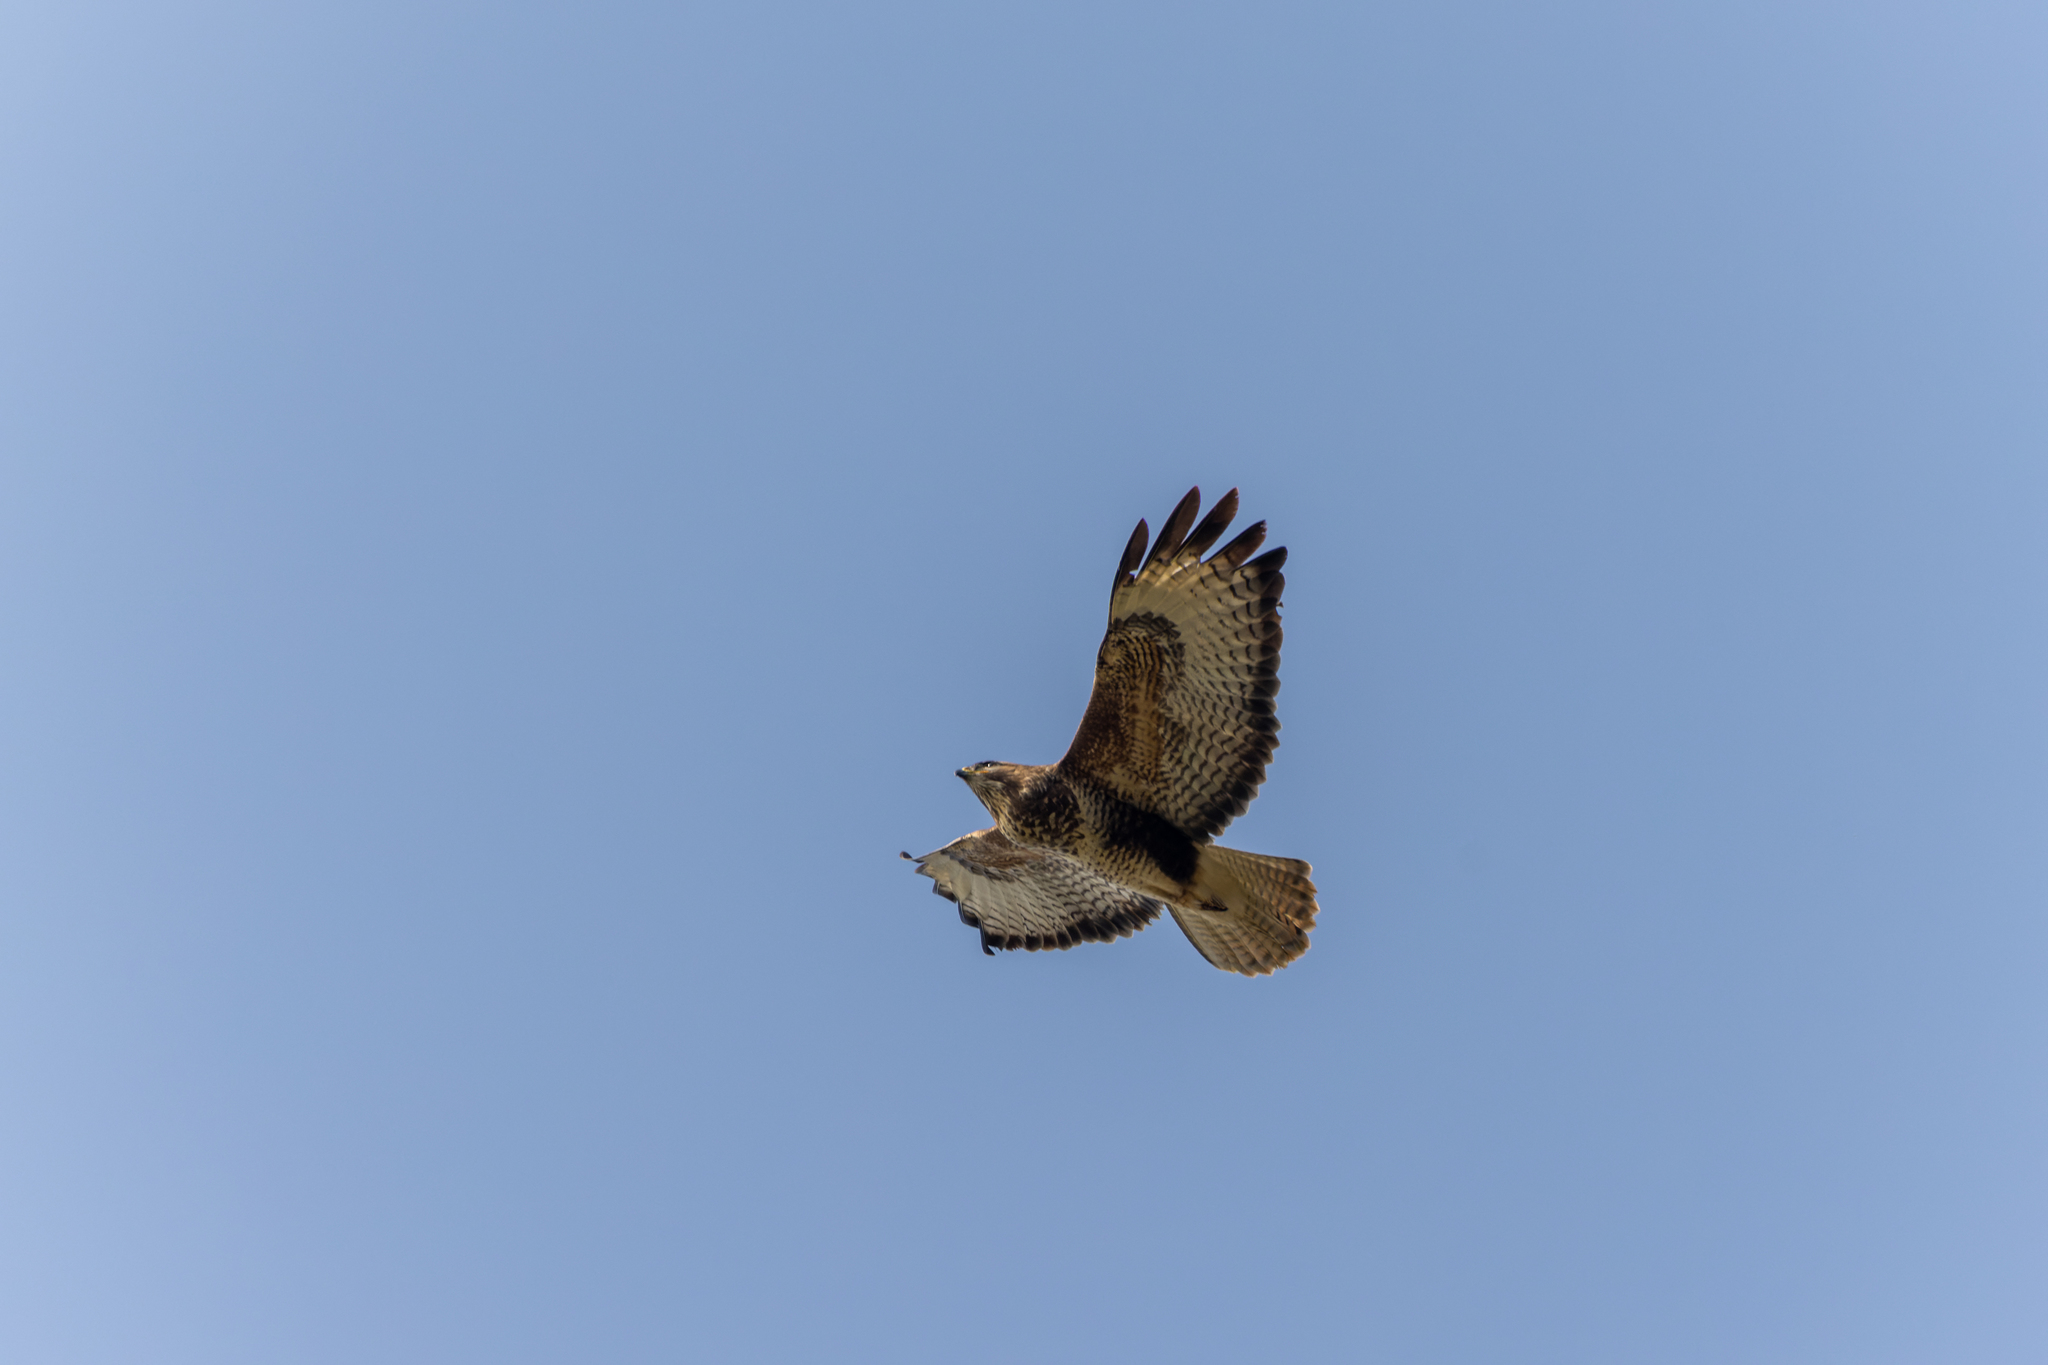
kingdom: Animalia
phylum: Chordata
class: Aves
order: Accipitriformes
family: Accipitridae
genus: Buteo
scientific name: Buteo buteo
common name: Common buzzard
